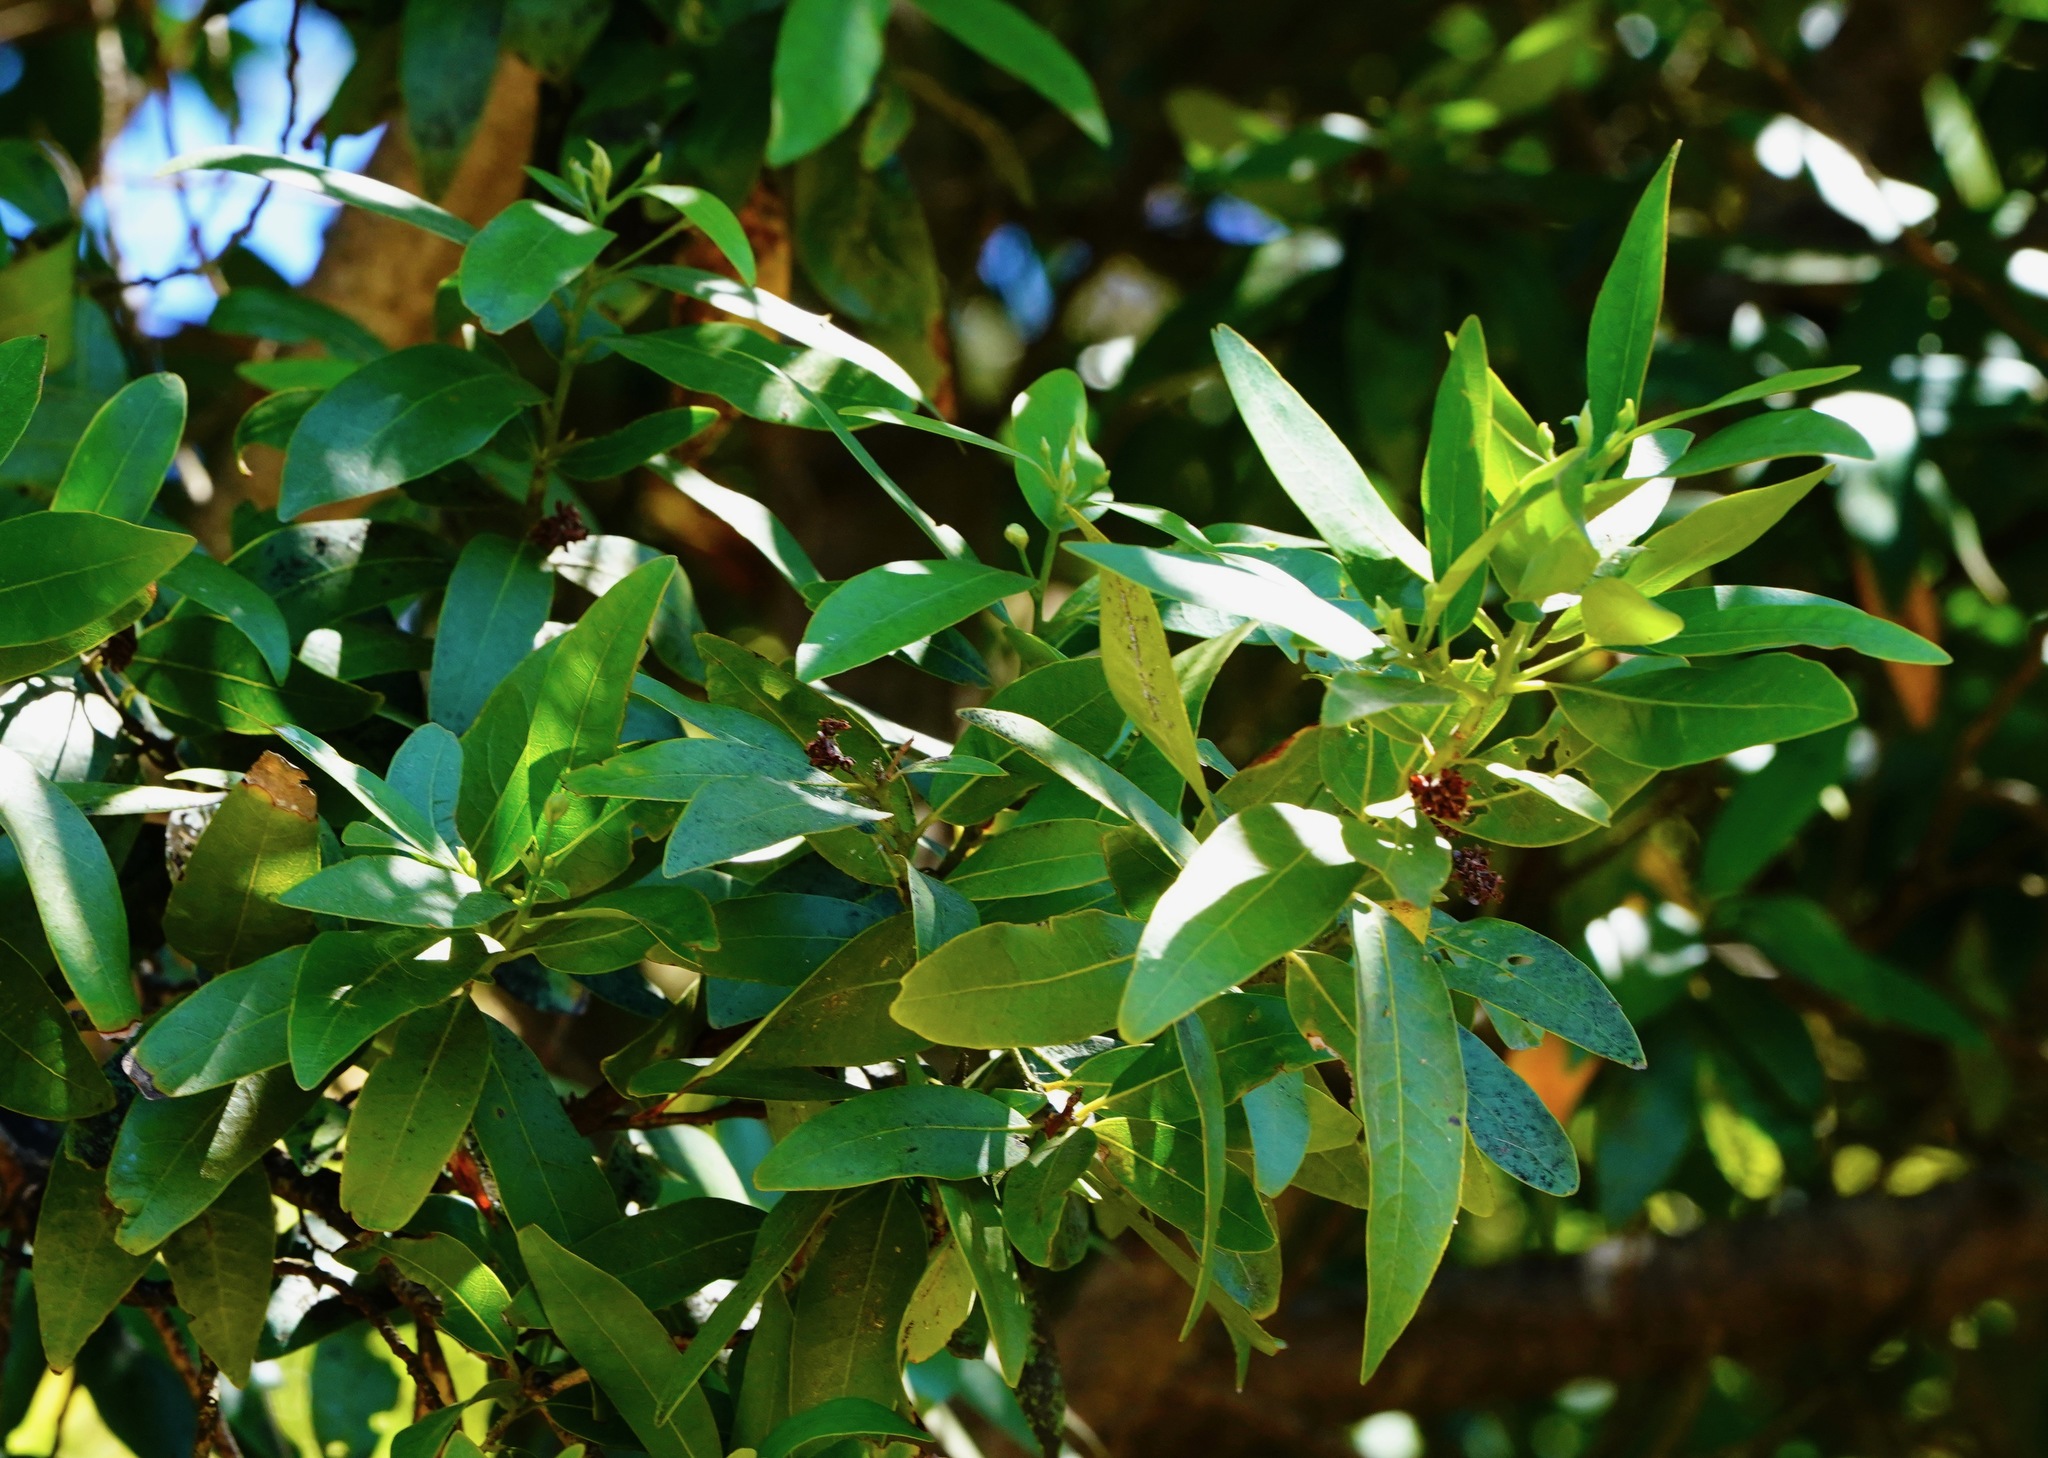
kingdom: Plantae
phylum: Tracheophyta
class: Magnoliopsida
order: Laurales
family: Lauraceae
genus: Umbellularia
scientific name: Umbellularia californica
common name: California bay
